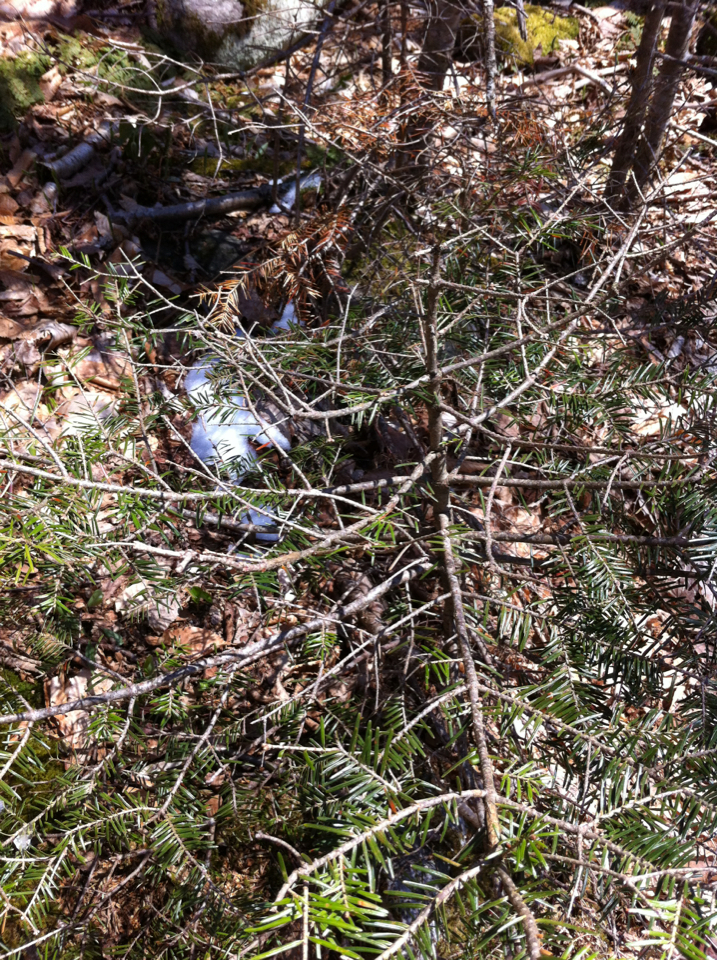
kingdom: Plantae
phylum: Tracheophyta
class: Pinopsida
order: Pinales
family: Pinaceae
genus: Abies
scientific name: Abies balsamea
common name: Balsam fir
